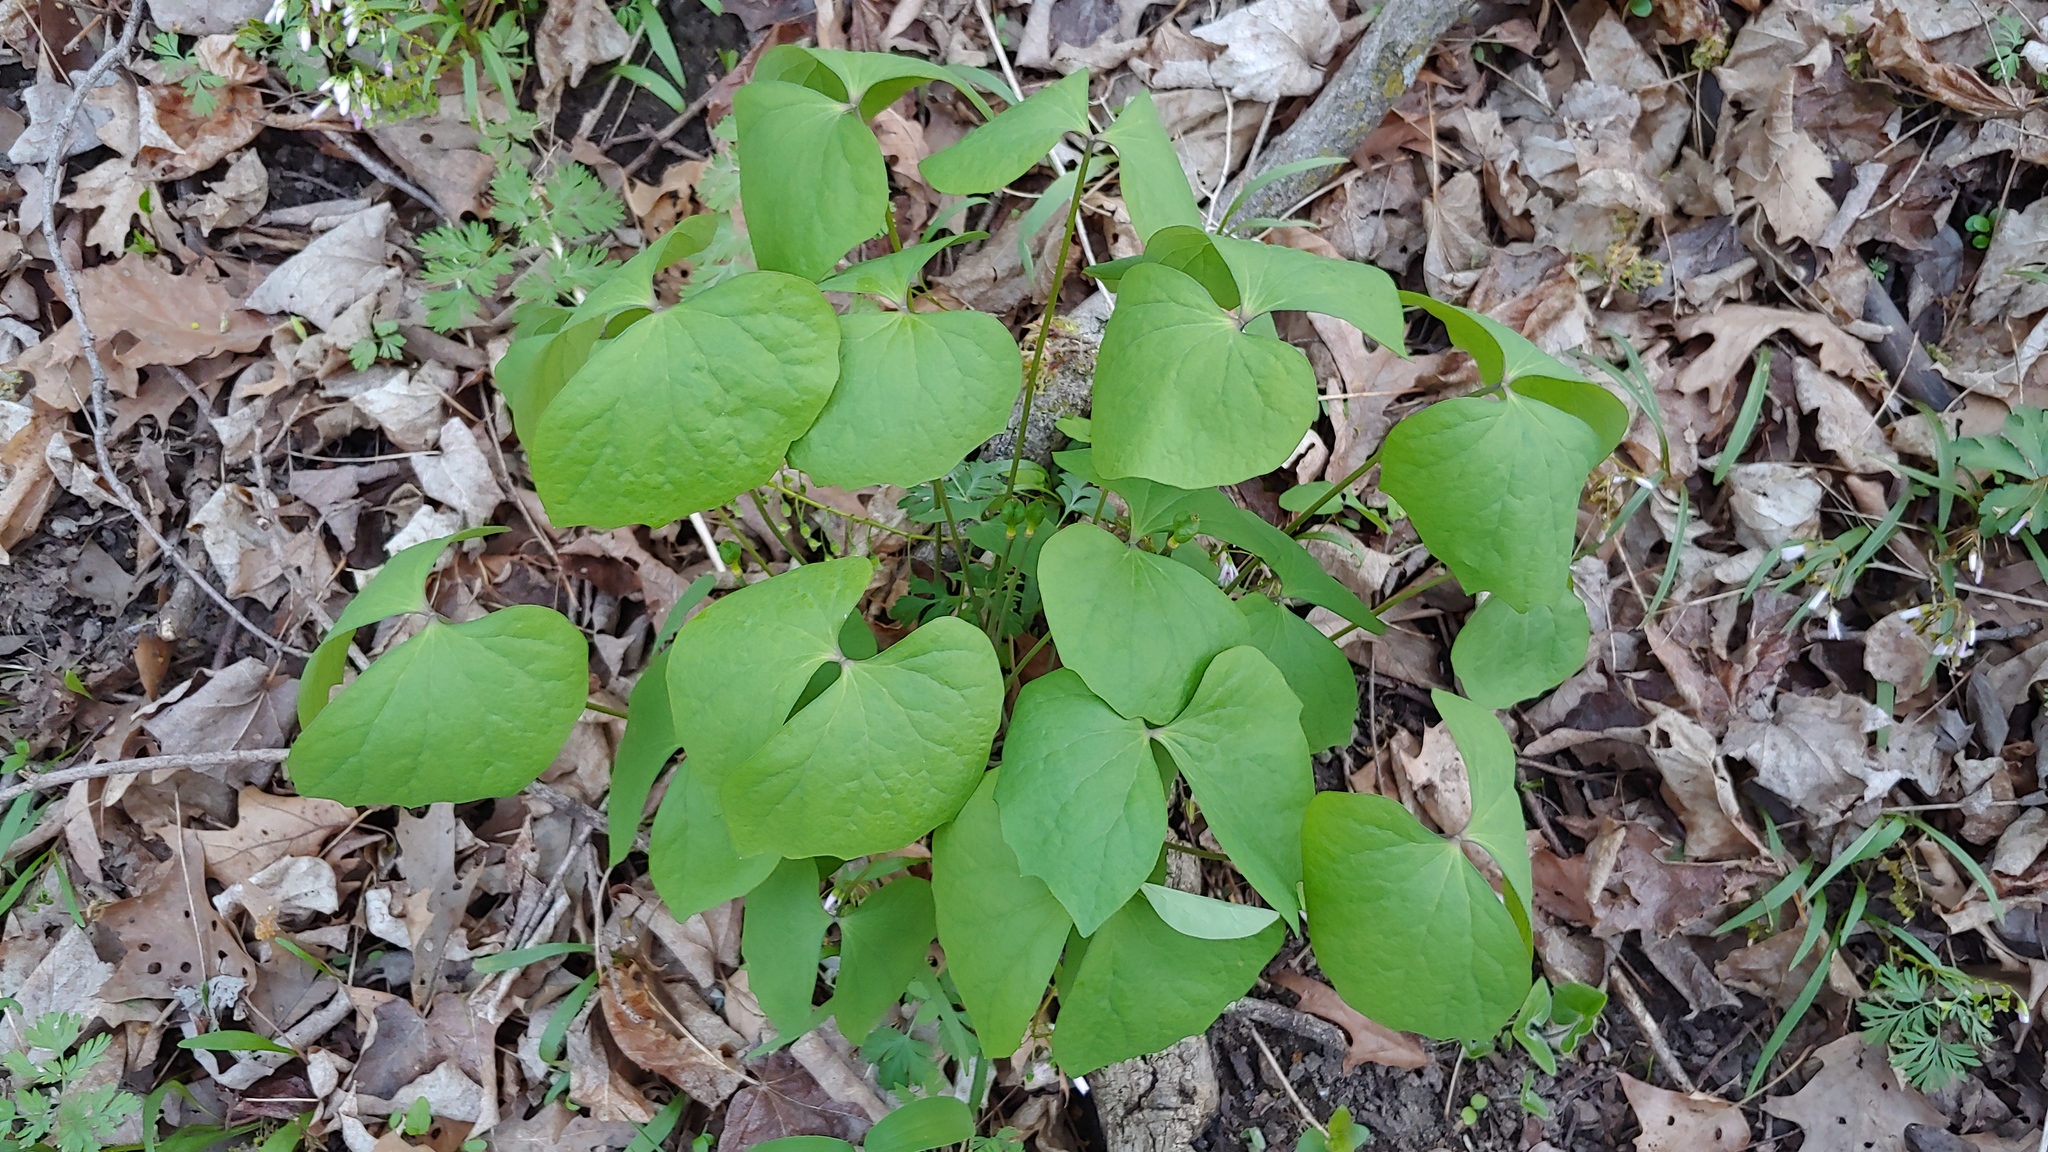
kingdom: Plantae
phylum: Tracheophyta
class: Magnoliopsida
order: Ranunculales
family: Berberidaceae
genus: Jeffersonia
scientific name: Jeffersonia diphylla
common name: Rheumatism-root
